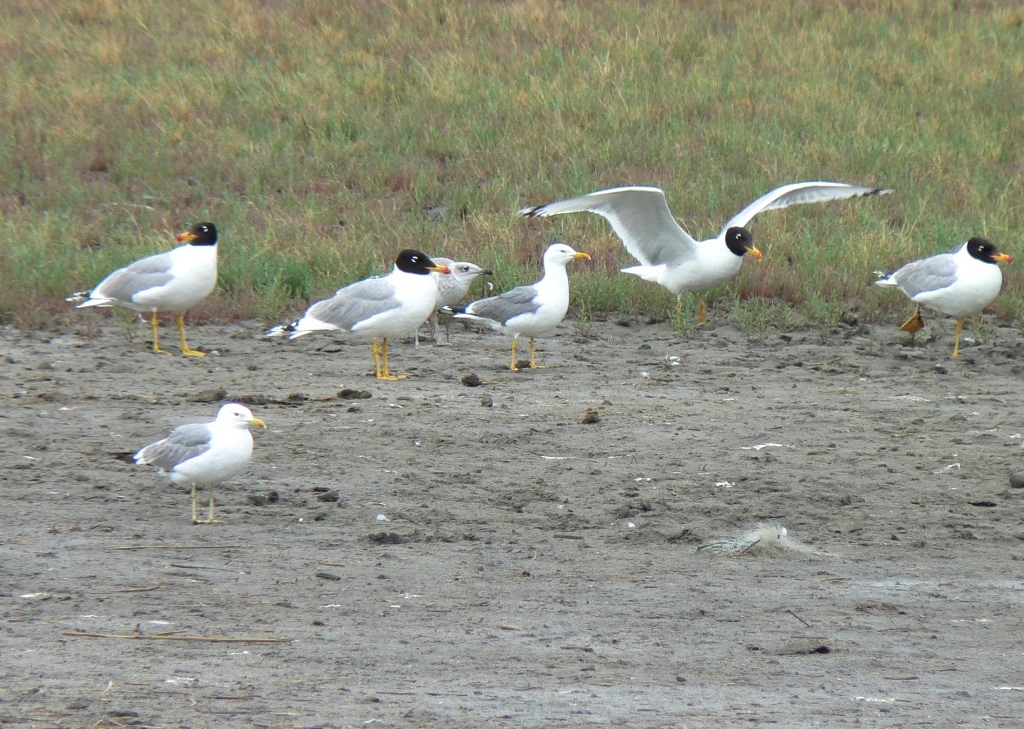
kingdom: Animalia
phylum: Chordata
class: Aves
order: Charadriiformes
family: Laridae
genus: Ichthyaetus
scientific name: Ichthyaetus ichthyaetus
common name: Pallas's gull
